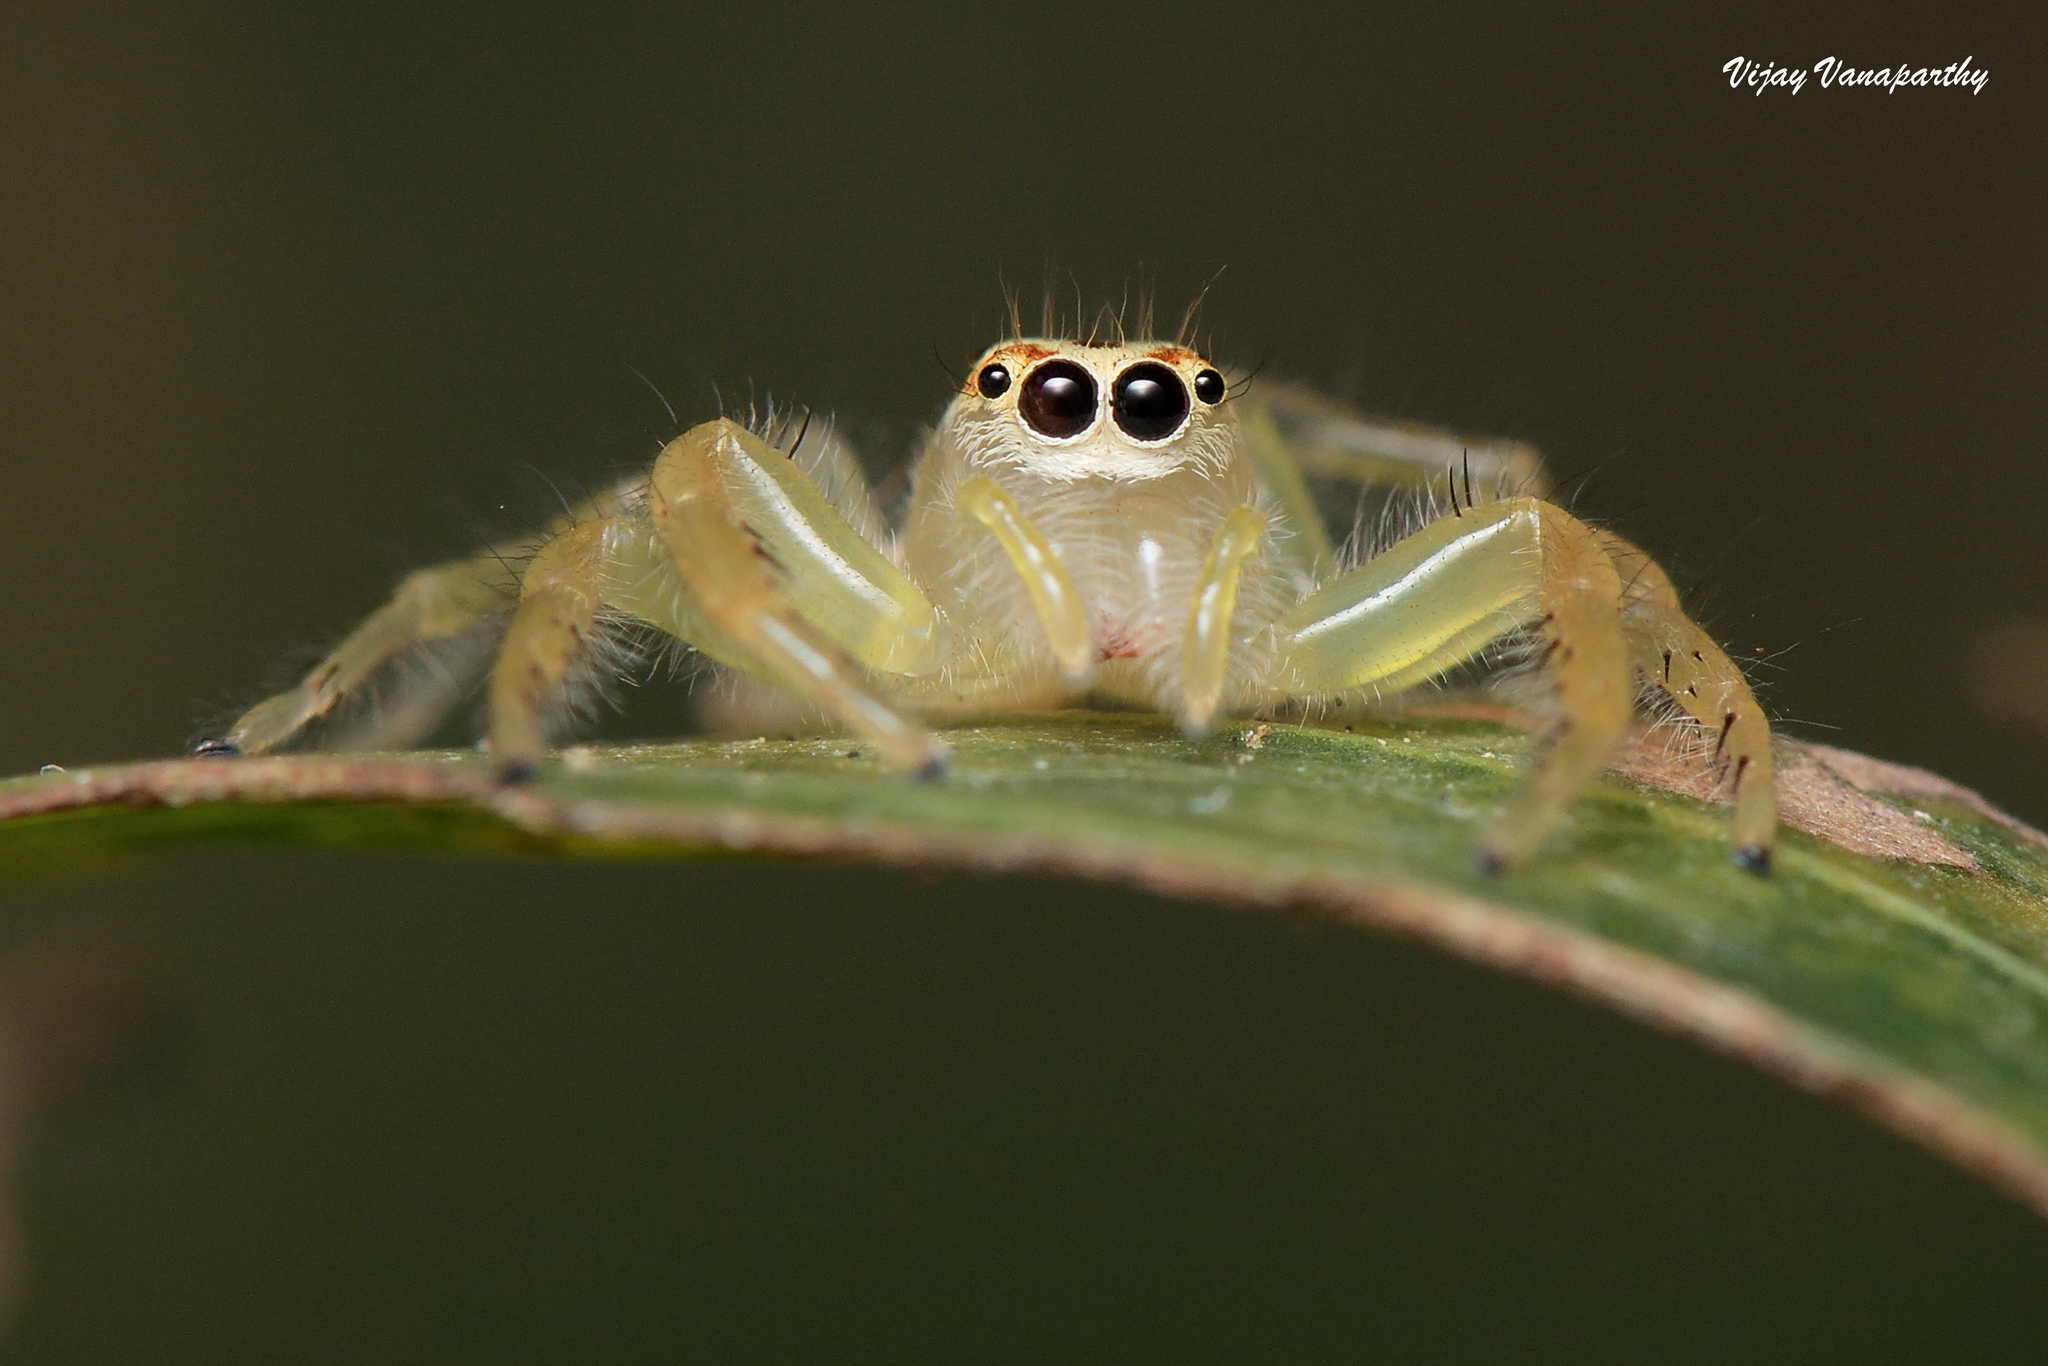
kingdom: Animalia
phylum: Arthropoda
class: Arachnida
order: Araneae
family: Salticidae
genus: Telamonia
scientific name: Telamonia dimidiata
